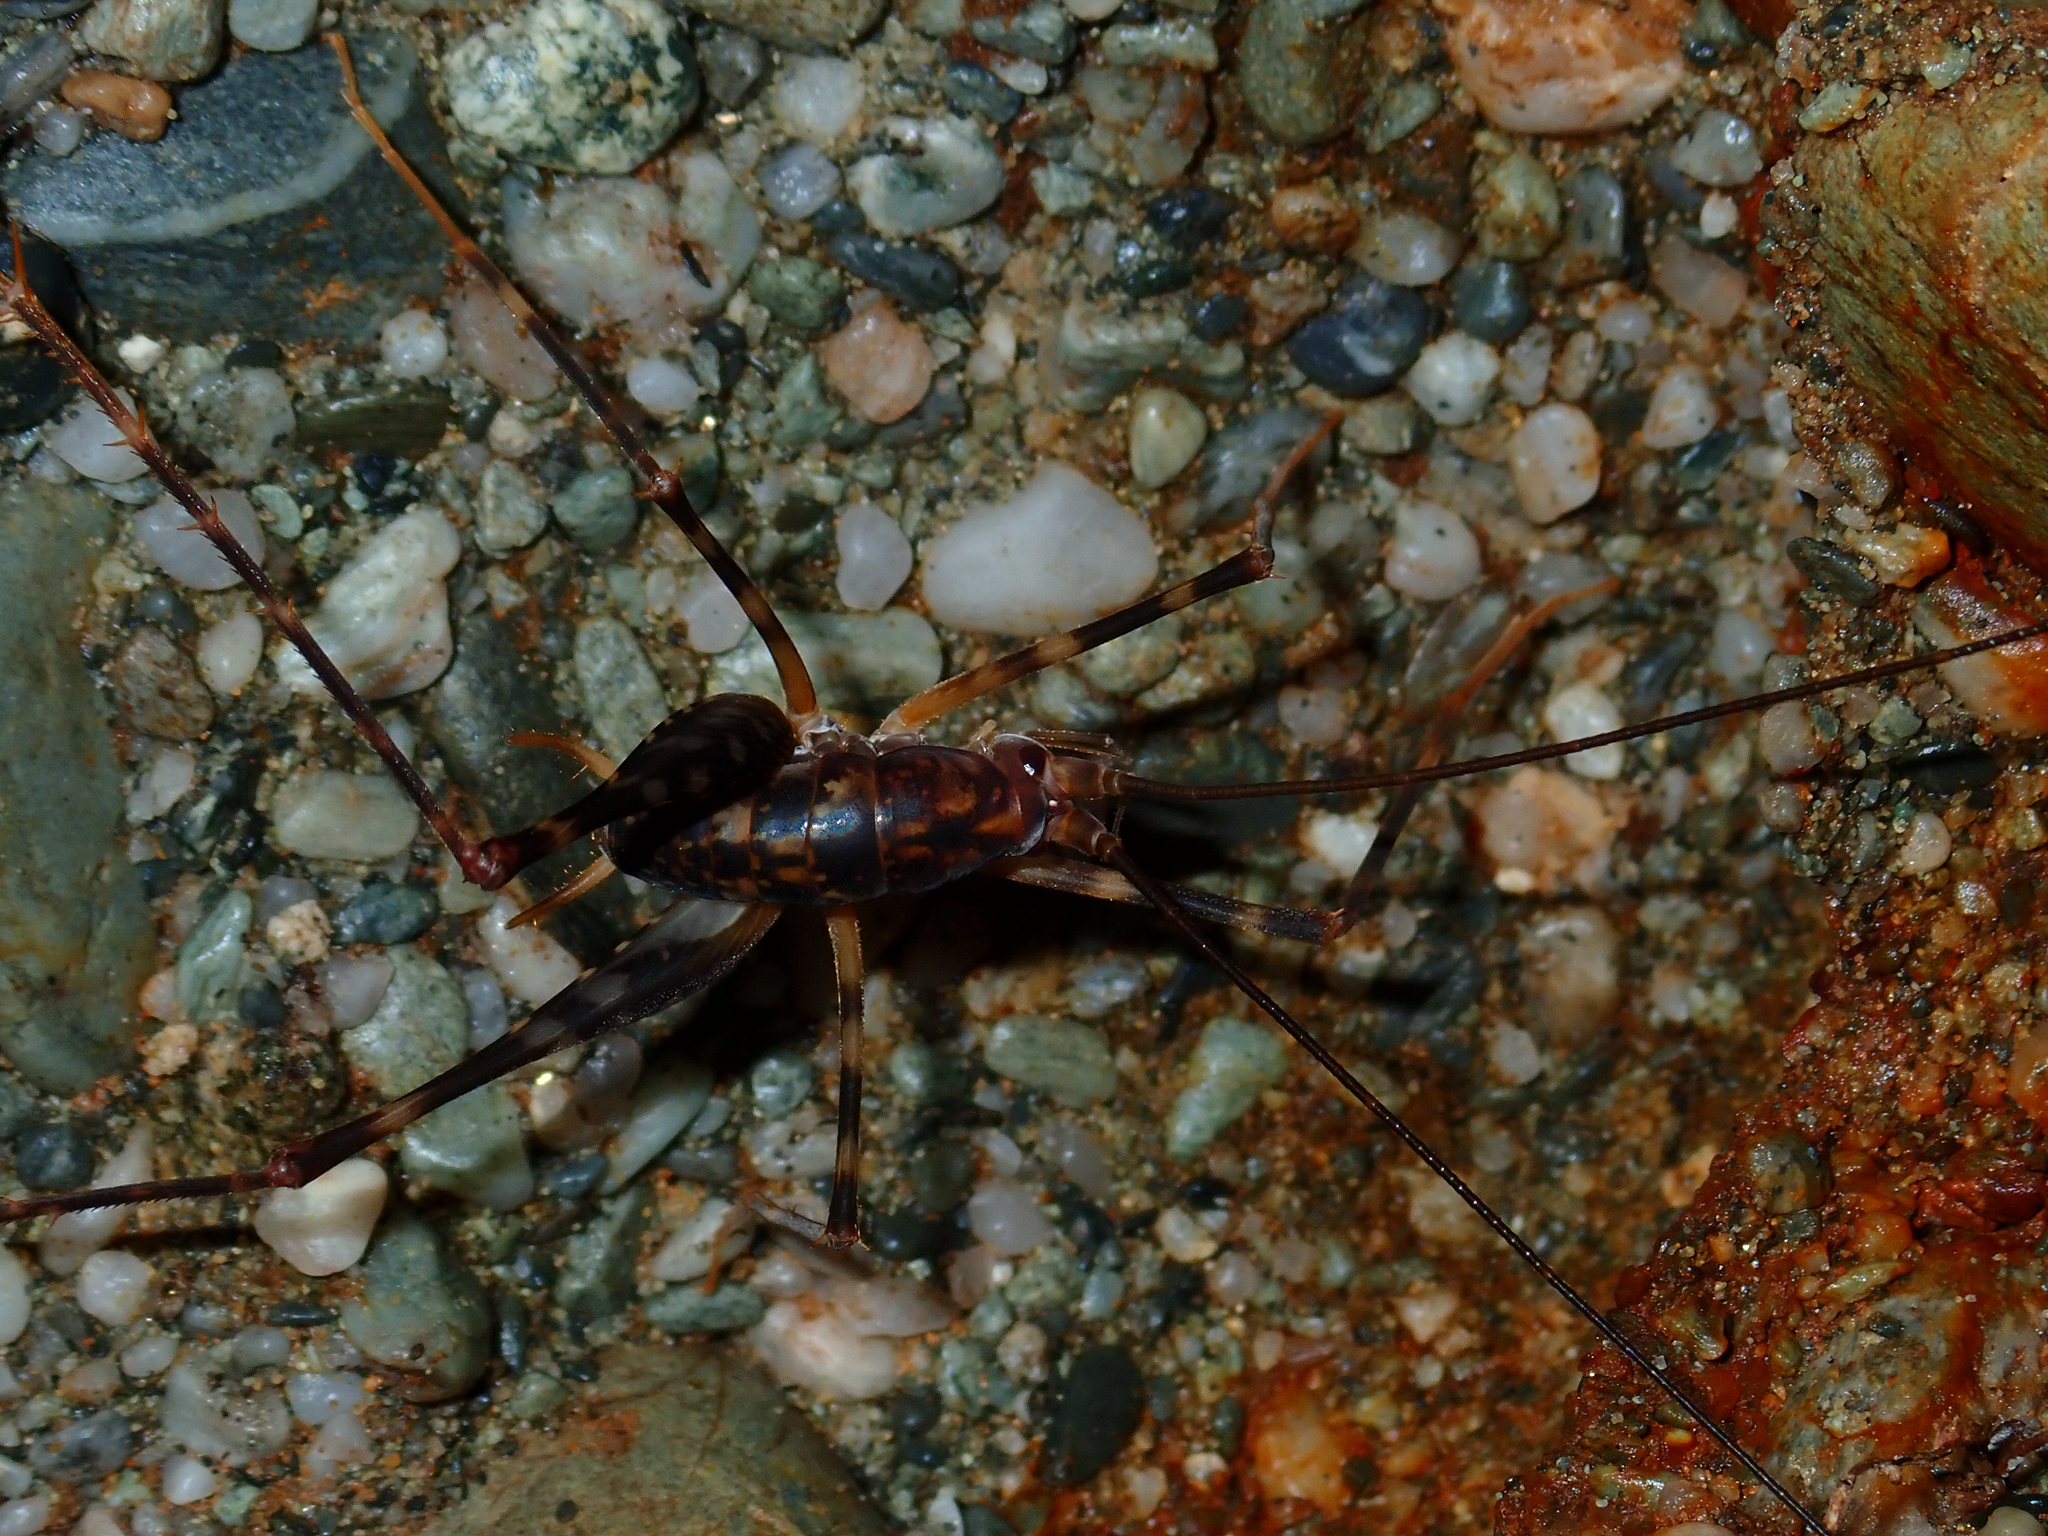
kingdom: Animalia
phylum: Arthropoda
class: Insecta
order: Orthoptera
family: Rhaphidophoridae
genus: Miotopus
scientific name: Miotopus richardsae
